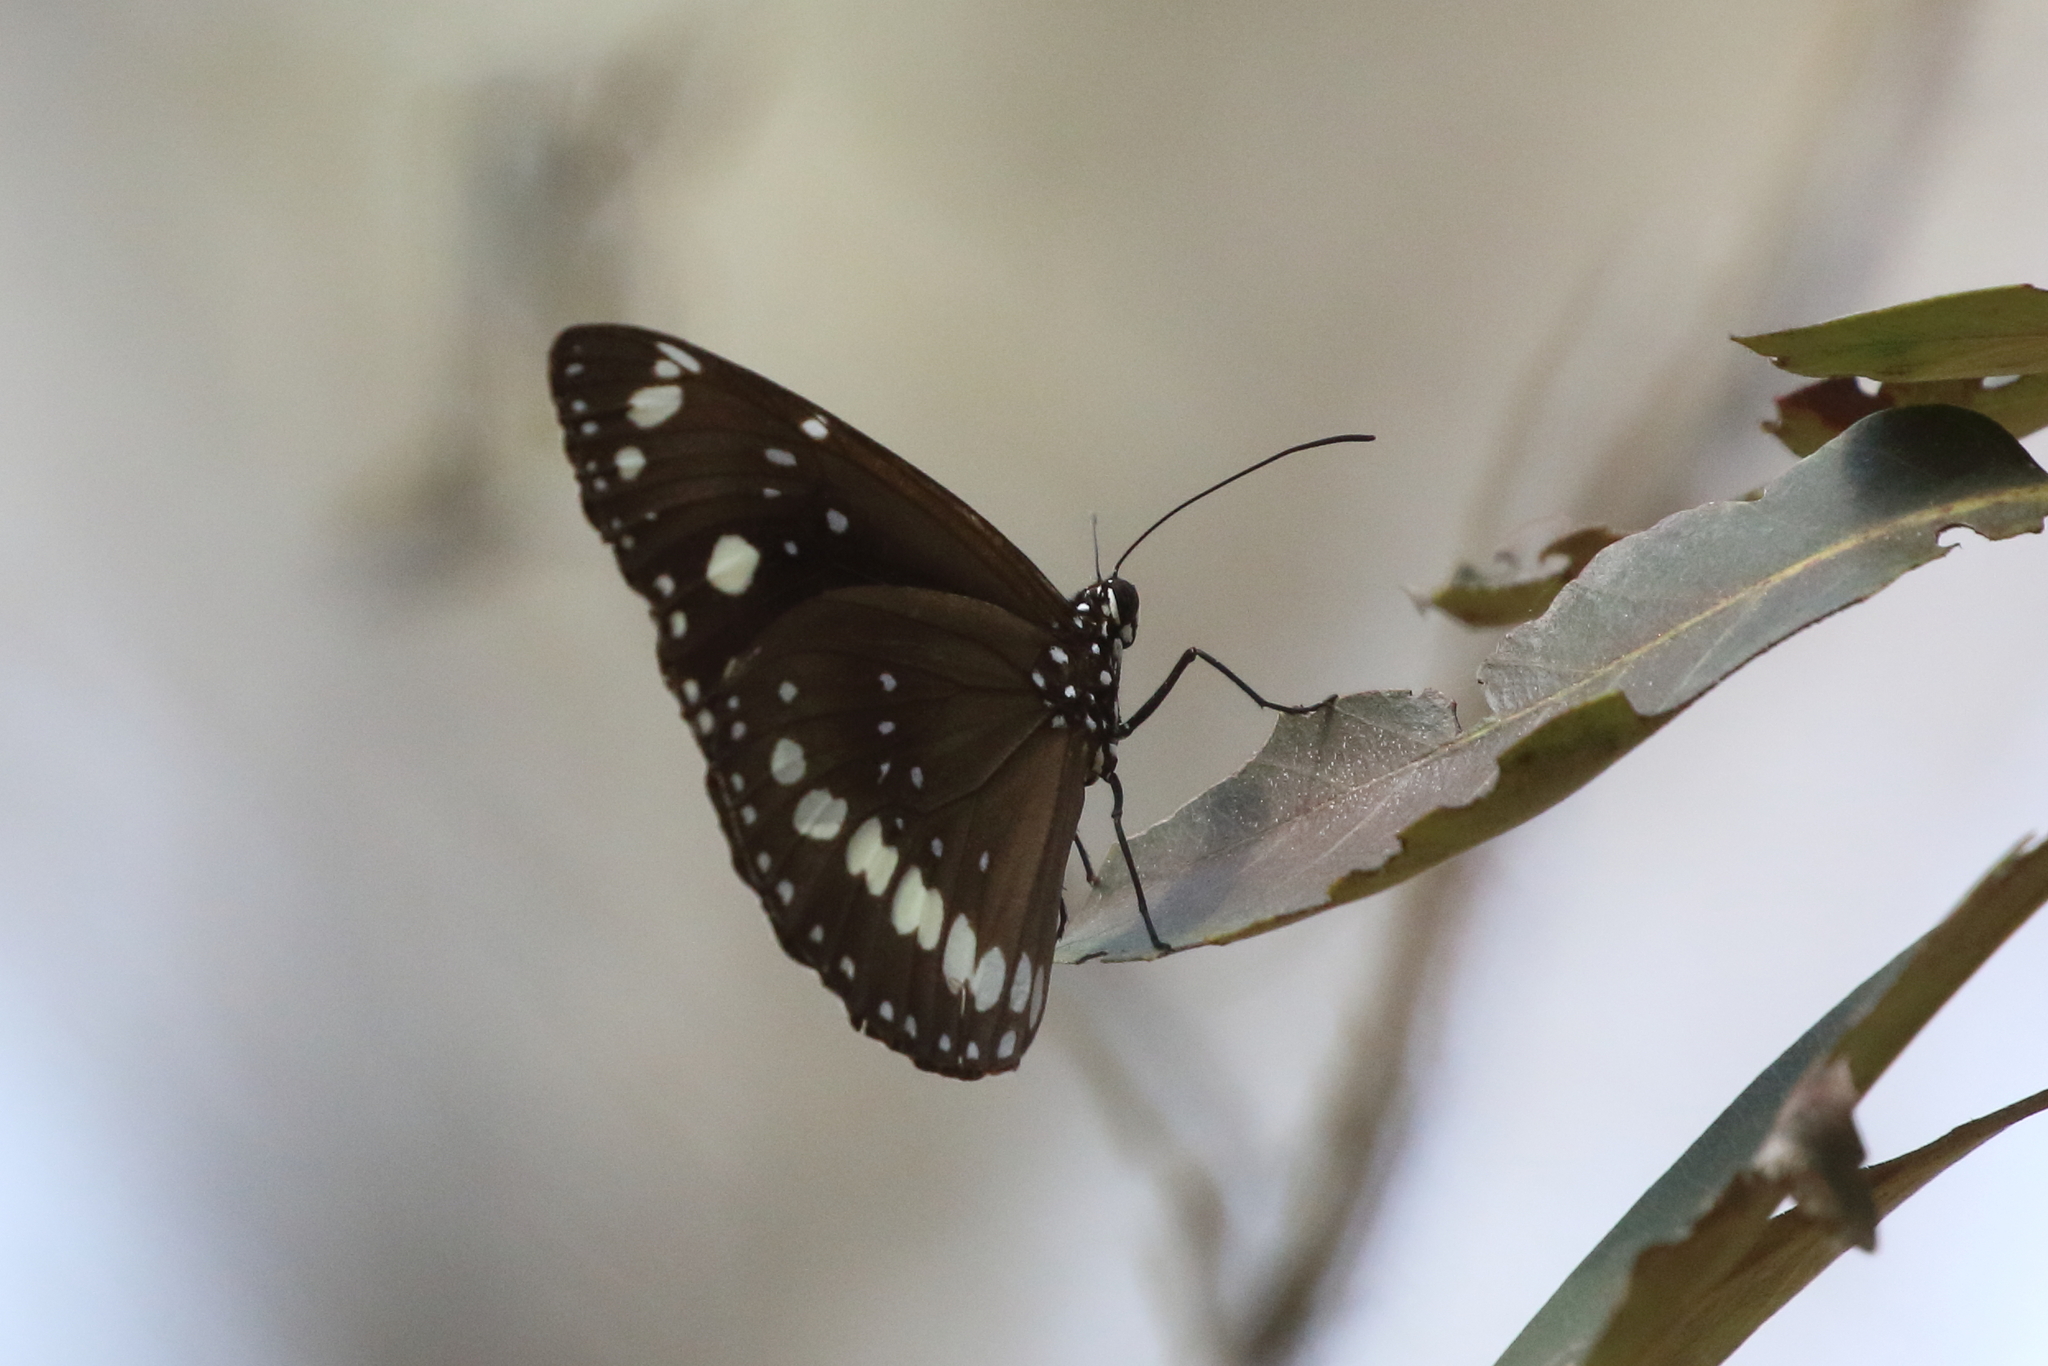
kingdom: Animalia
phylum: Arthropoda
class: Insecta
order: Lepidoptera
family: Nymphalidae
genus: Euploea
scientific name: Euploea core
